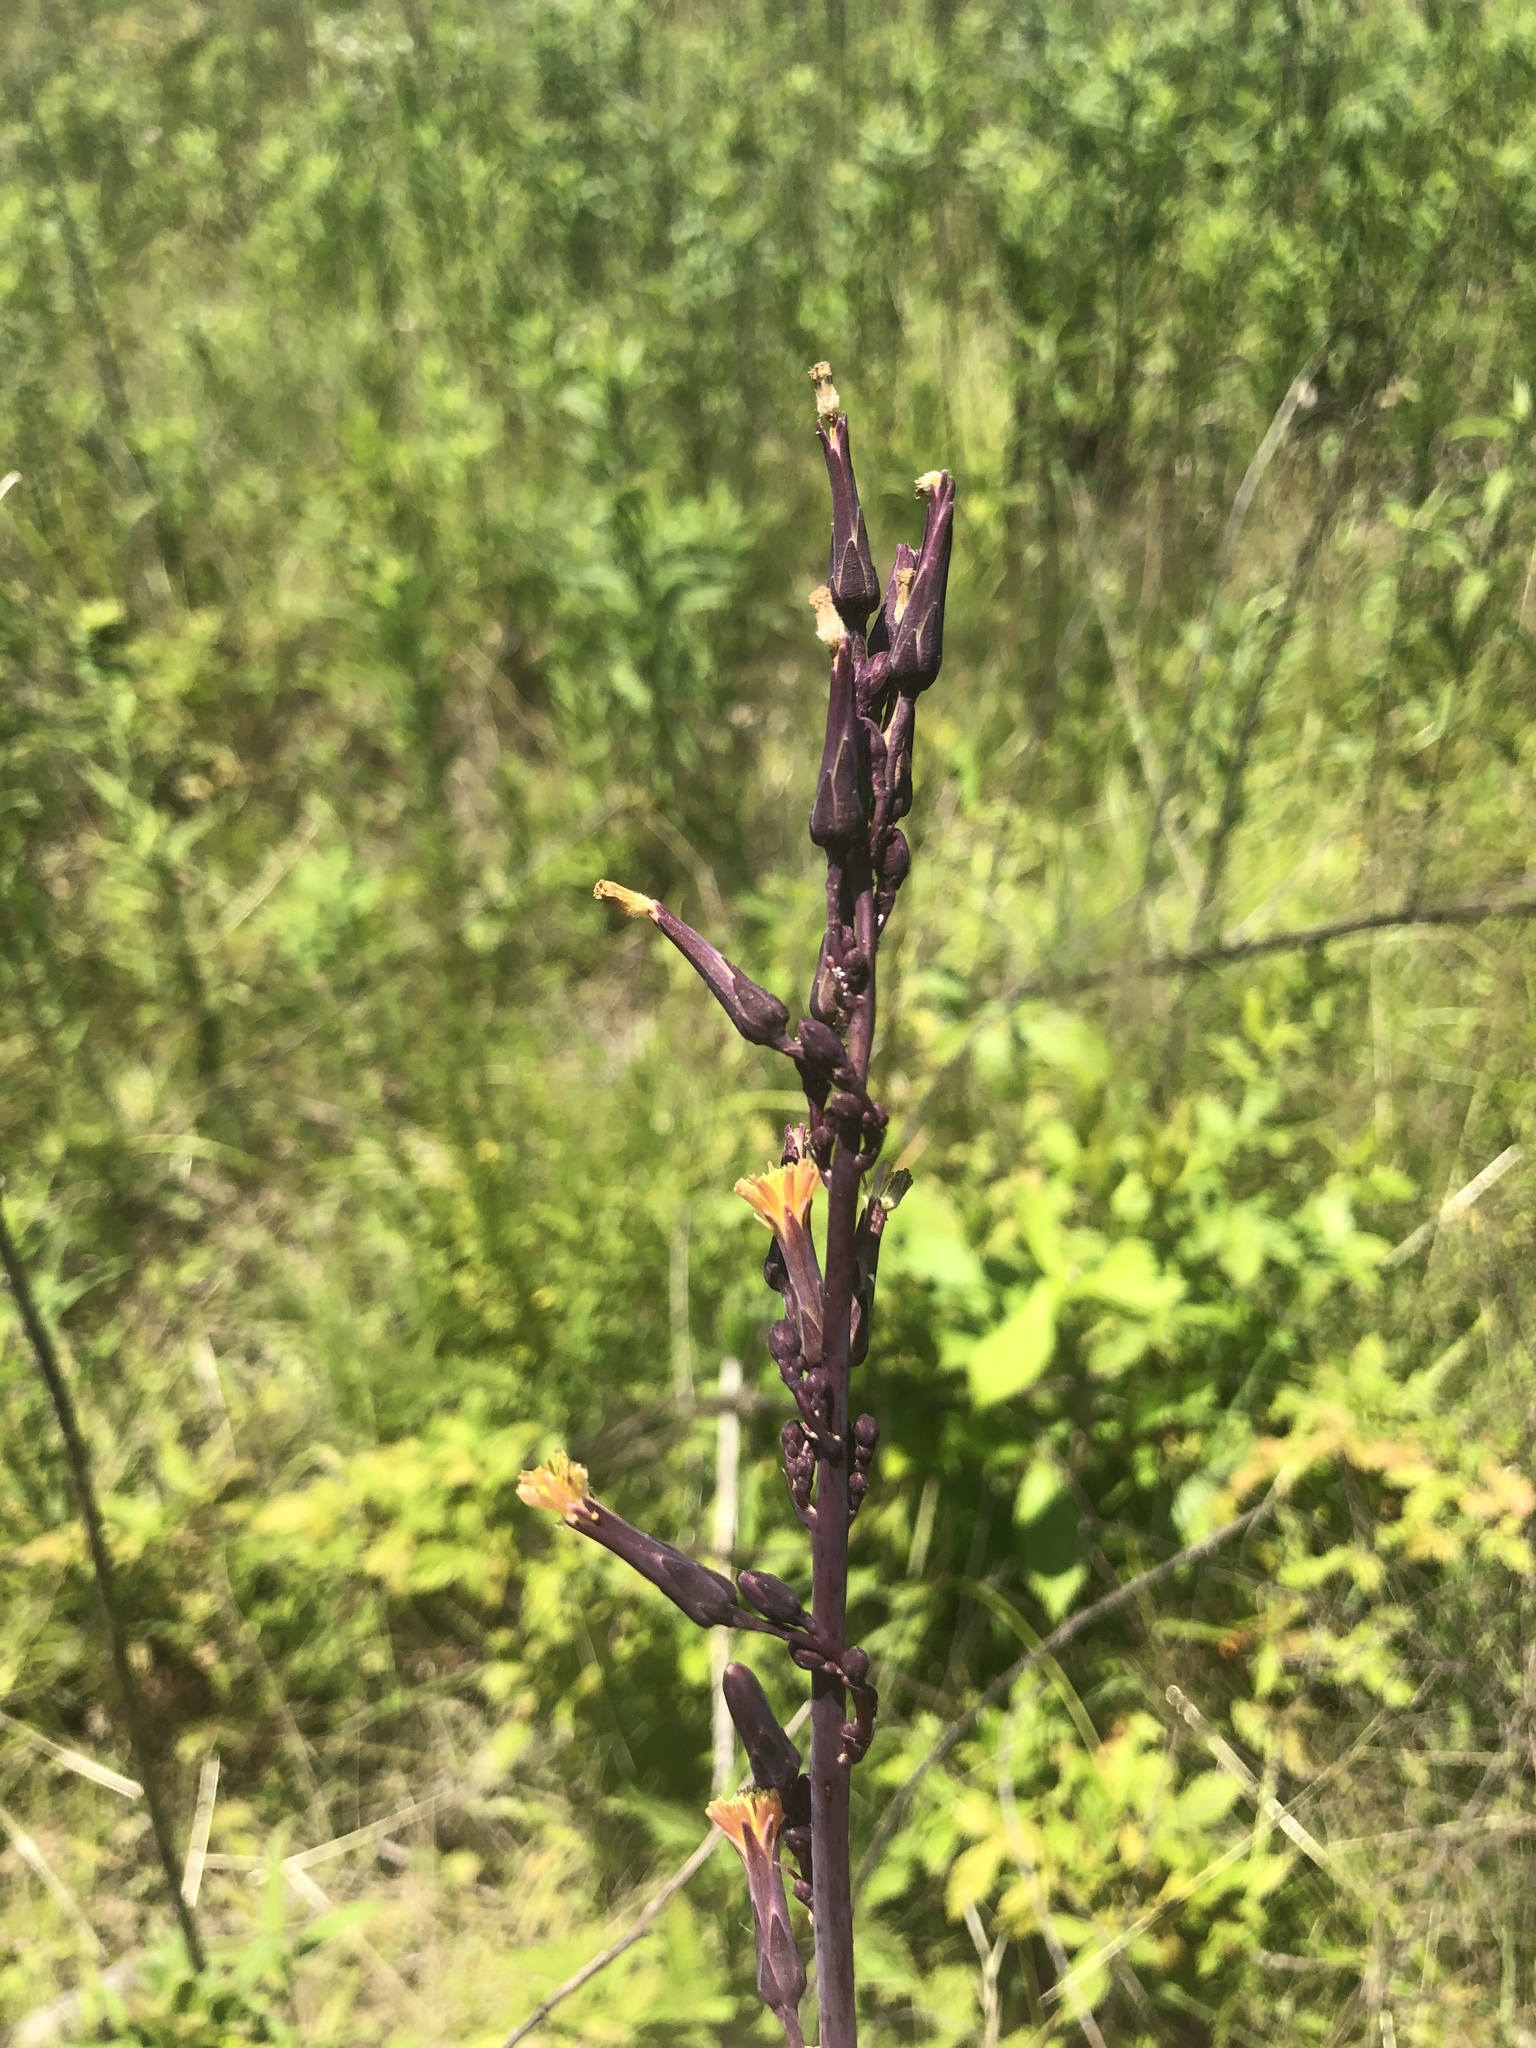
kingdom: Plantae
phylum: Tracheophyta
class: Magnoliopsida
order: Asterales
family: Asteraceae
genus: Lactuca
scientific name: Lactuca hirsuta
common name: Hairy lettuce
